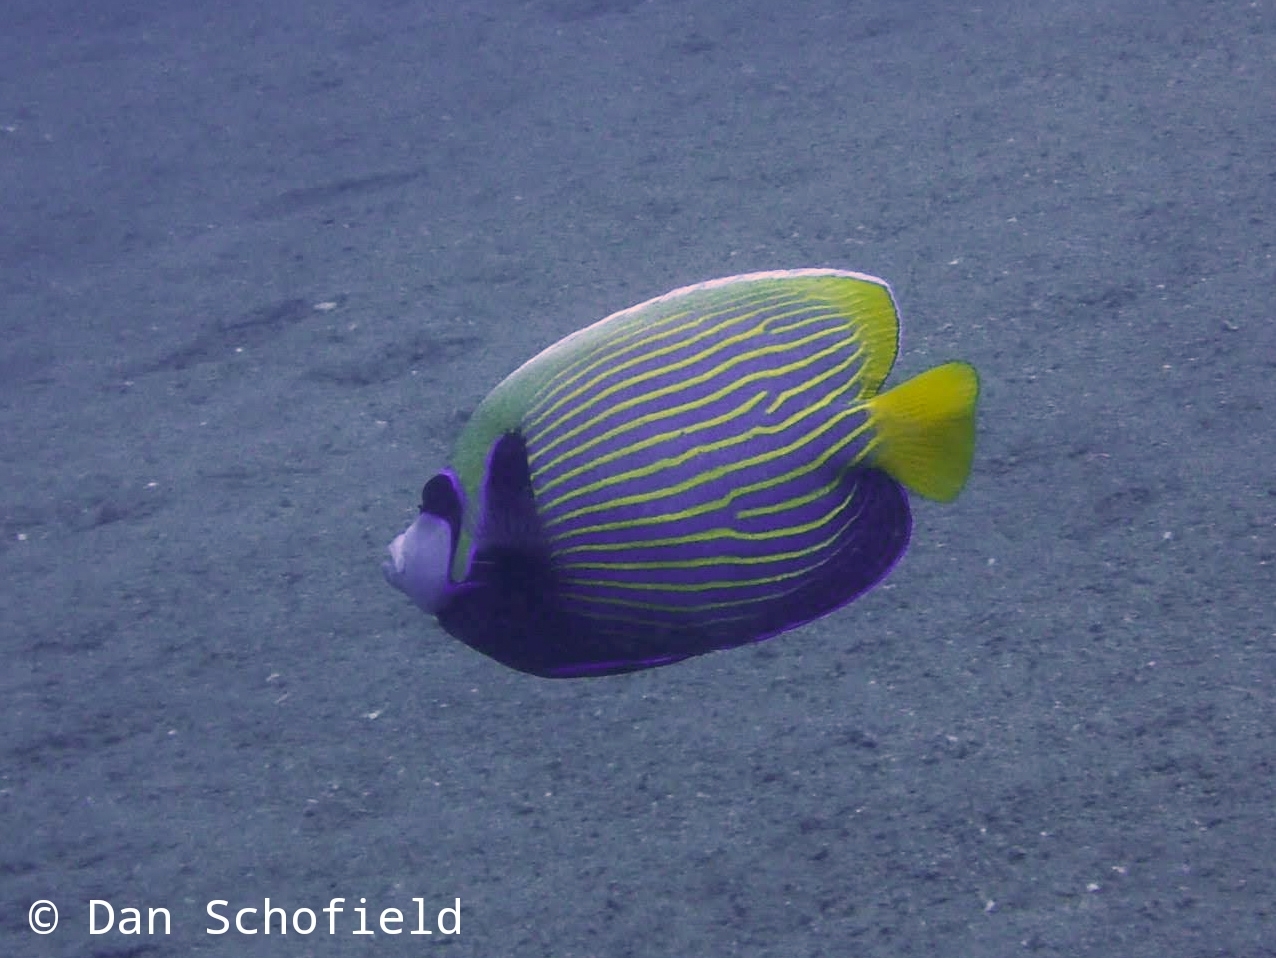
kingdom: Animalia
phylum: Chordata
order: Perciformes
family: Pomacanthidae
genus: Pomacanthus
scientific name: Pomacanthus imperator
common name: Emperor angelfish
